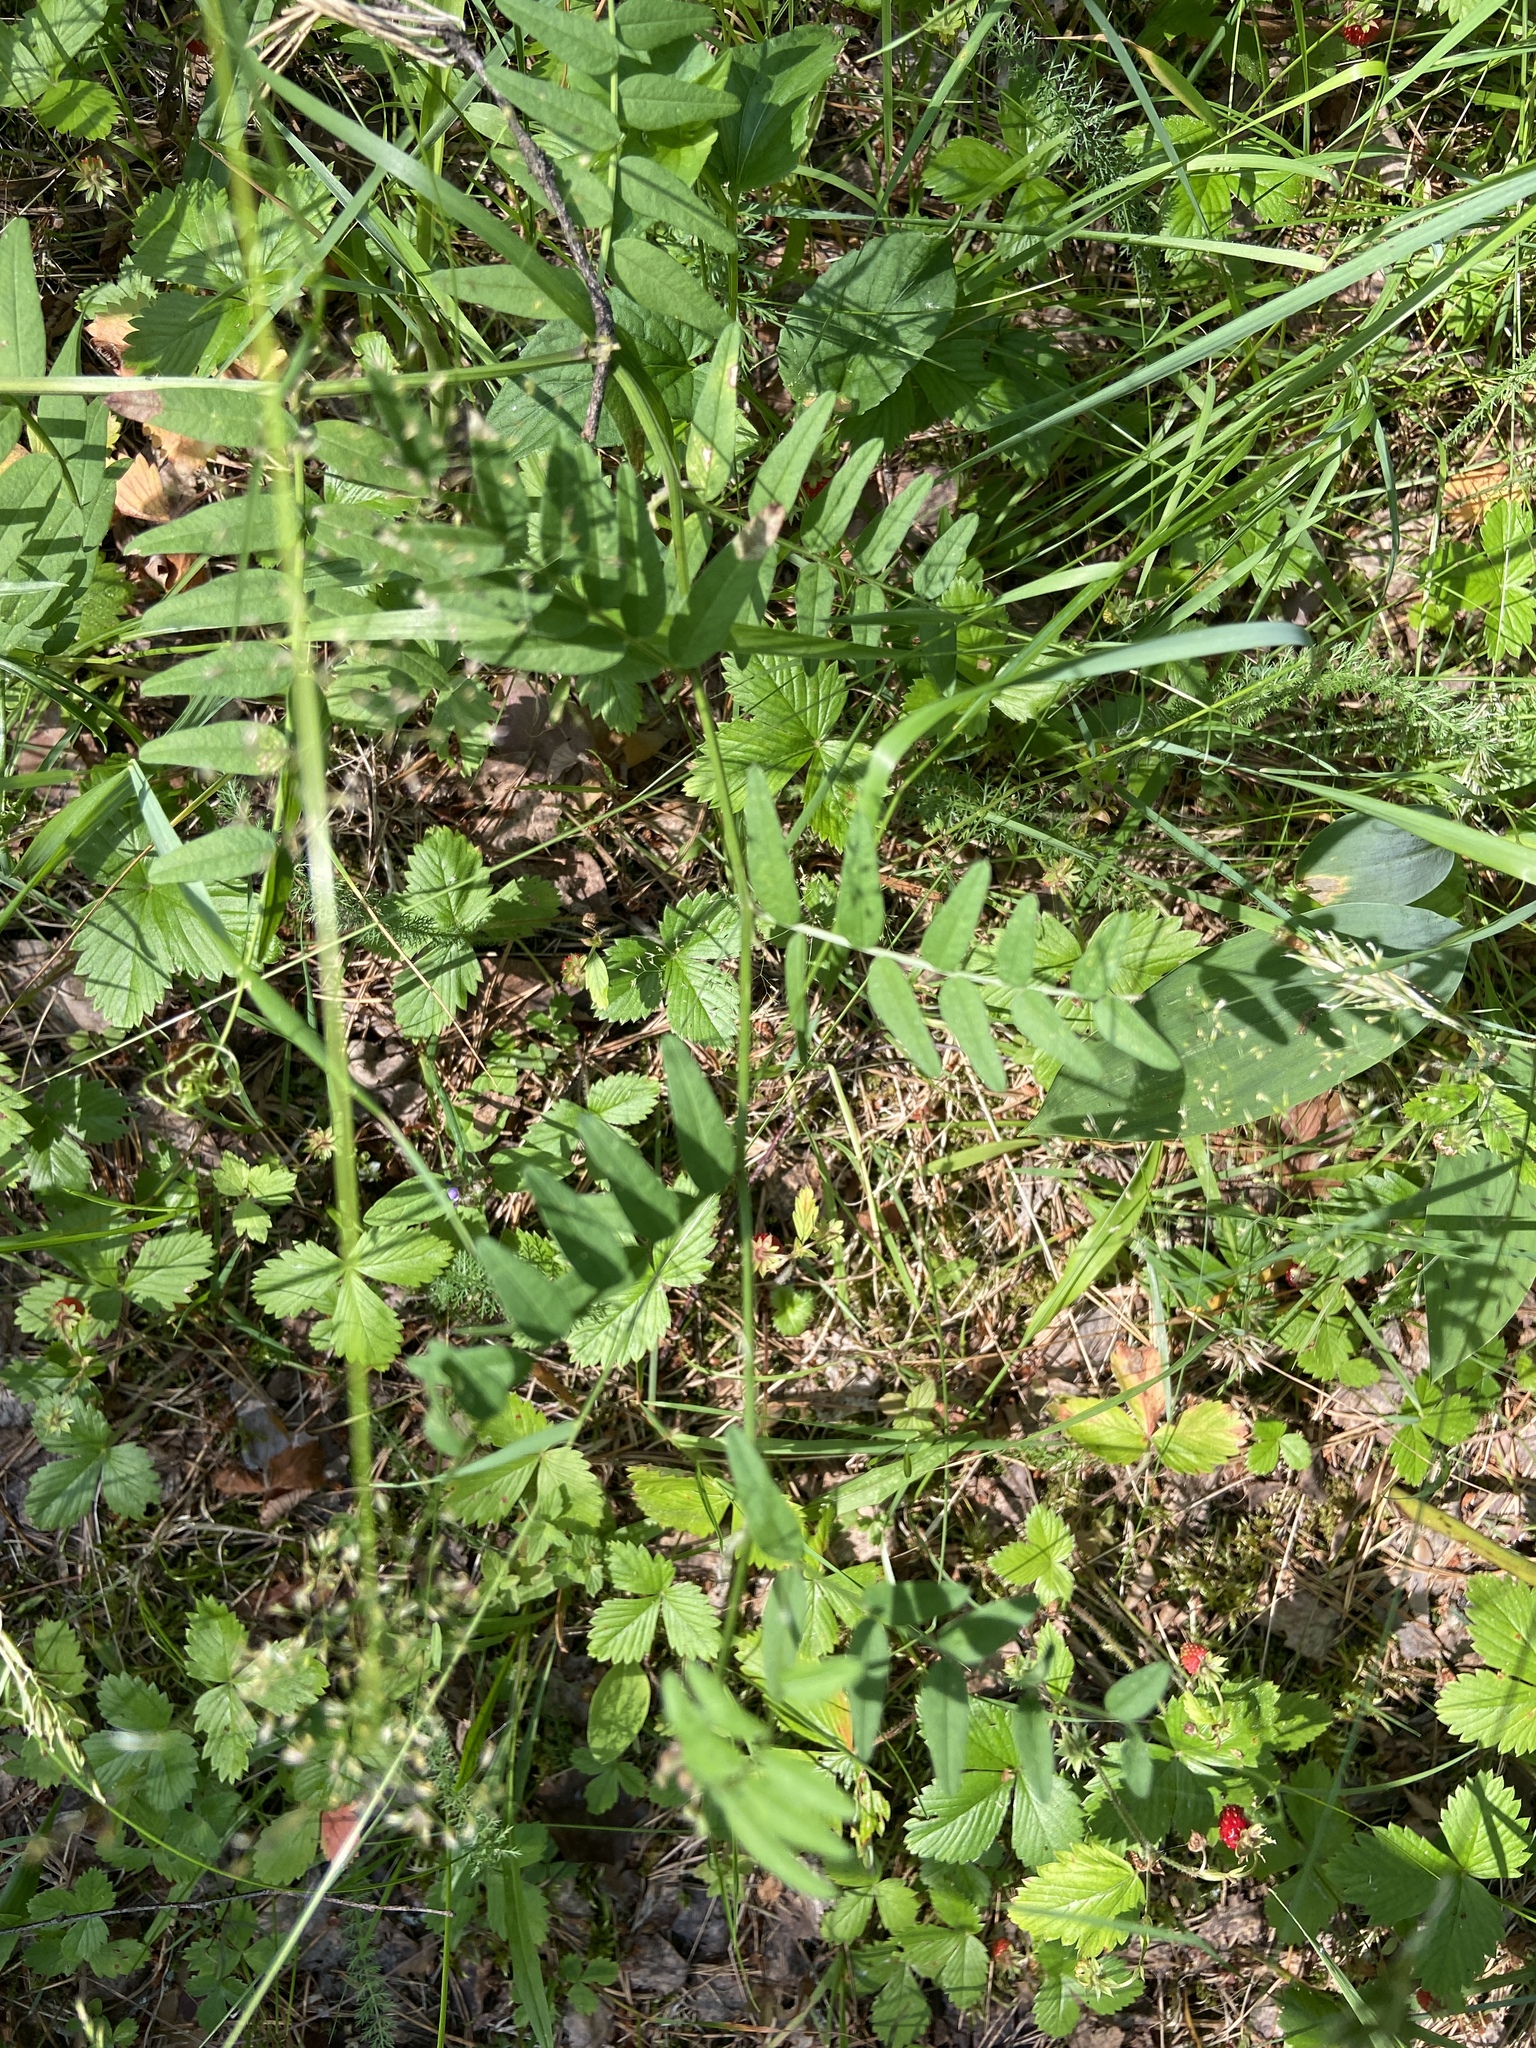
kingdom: Plantae
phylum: Tracheophyta
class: Magnoliopsida
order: Fabales
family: Fabaceae
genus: Vicia
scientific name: Vicia sepium
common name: Bush vetch
